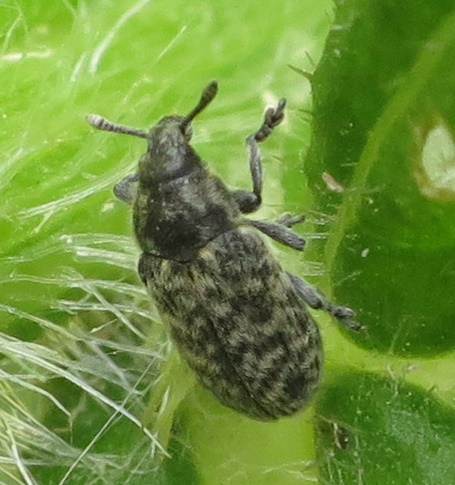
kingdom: Animalia
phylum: Arthropoda
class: Insecta
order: Coleoptera
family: Curculionidae
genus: Rhinocyllus
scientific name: Rhinocyllus conicus
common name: Weevil
